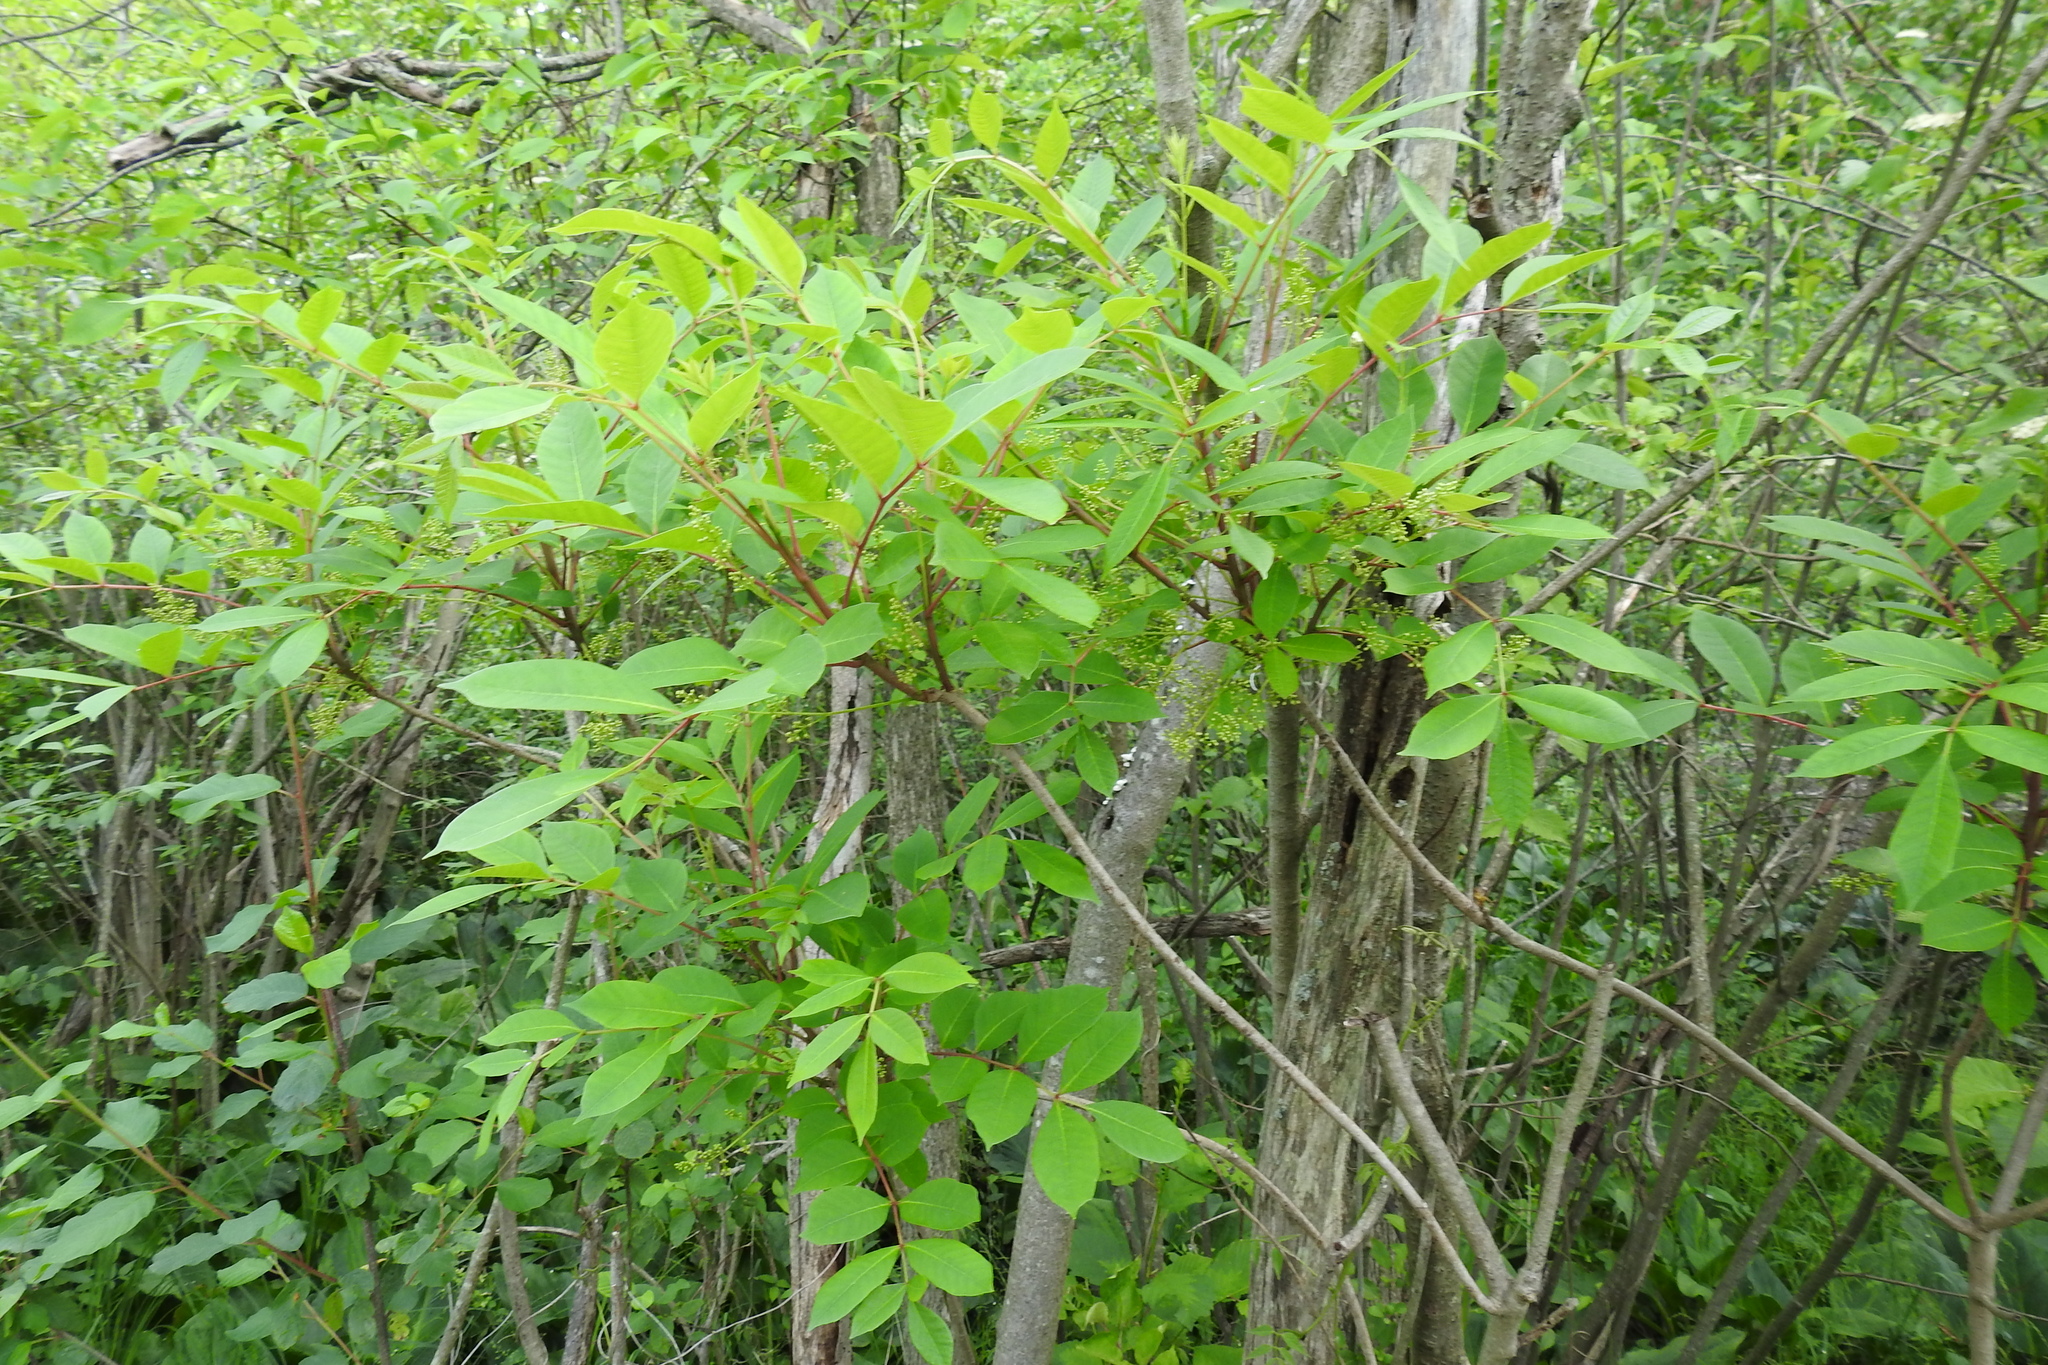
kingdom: Plantae
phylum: Tracheophyta
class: Magnoliopsida
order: Sapindales
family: Anacardiaceae
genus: Toxicodendron
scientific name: Toxicodendron vernix
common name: Poison sumac
